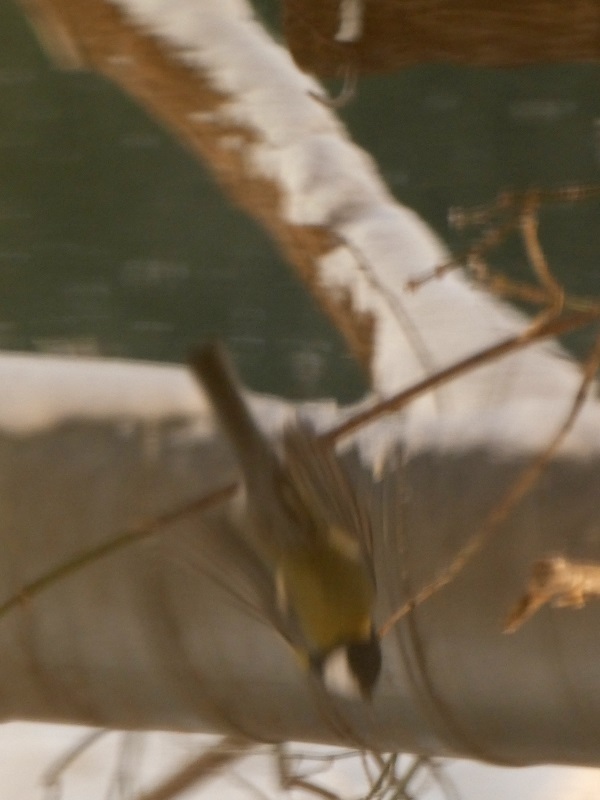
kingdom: Animalia
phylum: Chordata
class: Aves
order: Passeriformes
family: Paridae
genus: Parus
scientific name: Parus major
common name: Great tit
